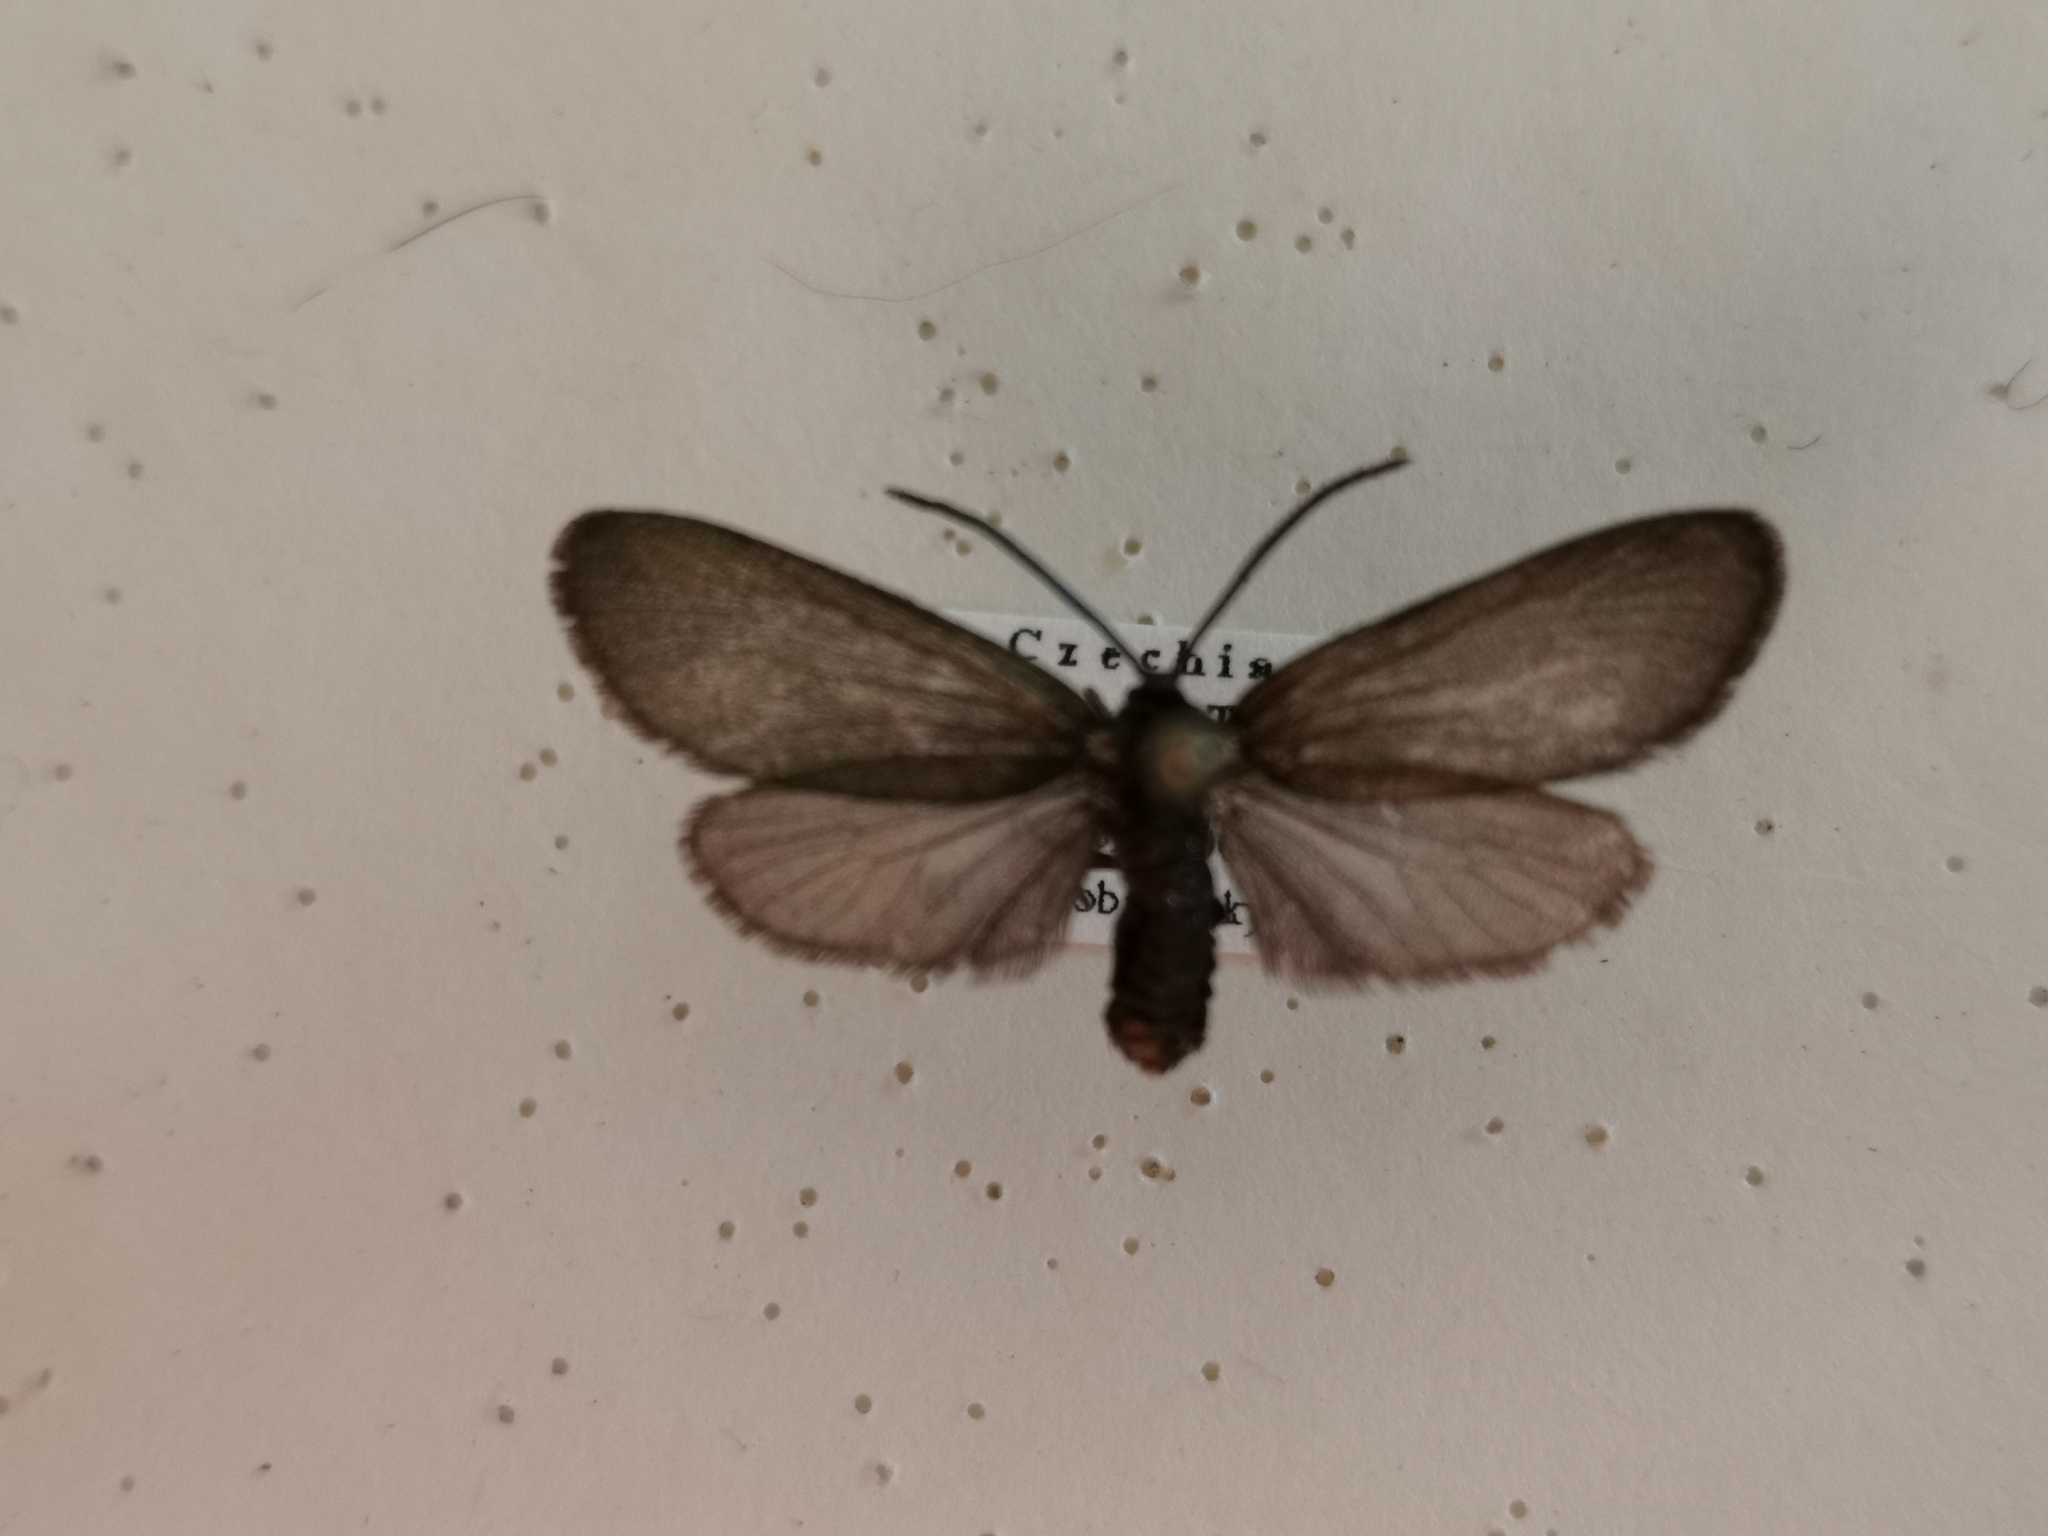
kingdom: Animalia
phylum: Arthropoda
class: Insecta
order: Lepidoptera
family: Zygaenidae
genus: Rhagades
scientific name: Rhagades pruni
